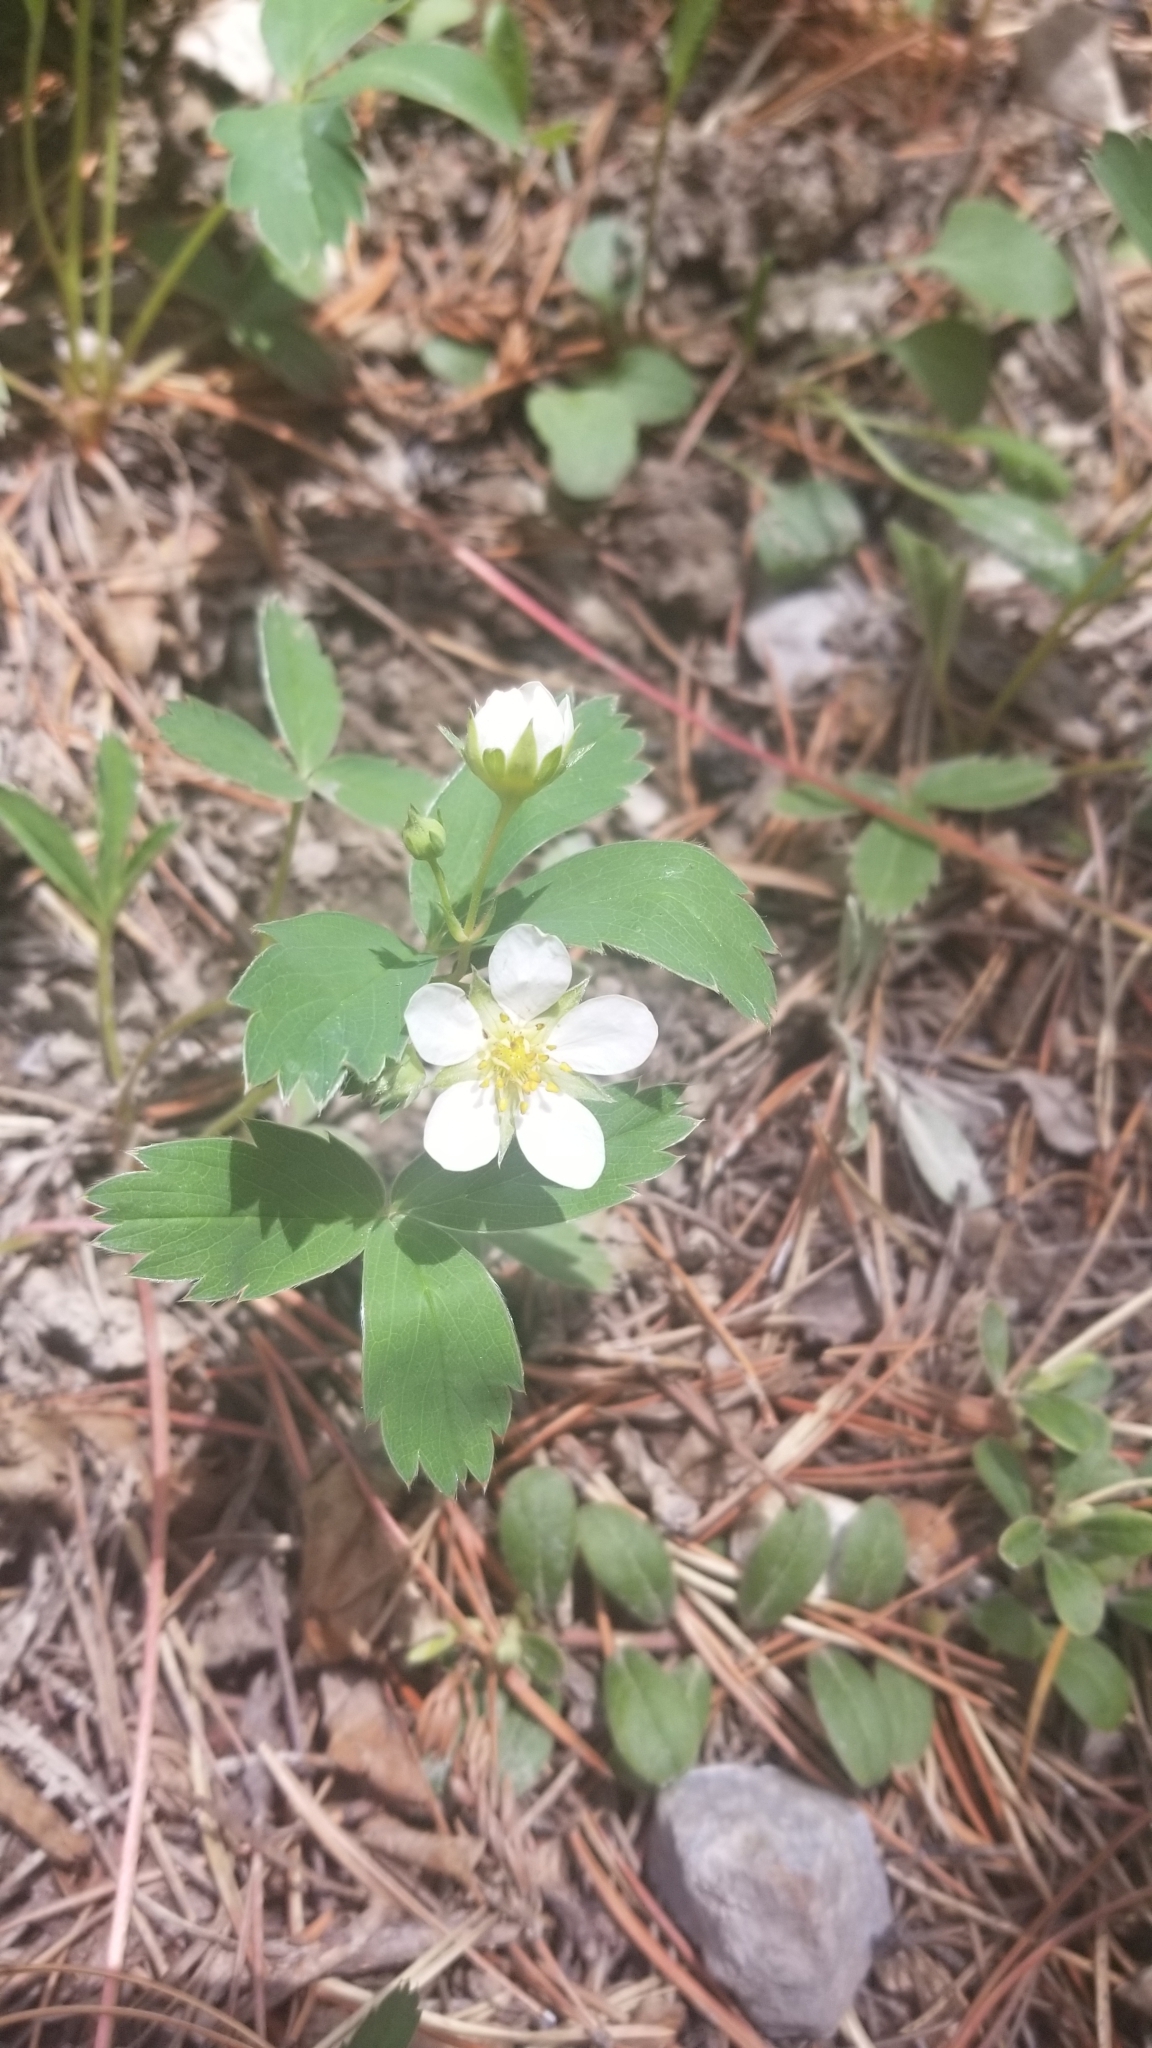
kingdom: Plantae
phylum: Tracheophyta
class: Magnoliopsida
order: Rosales
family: Rosaceae
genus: Fragaria
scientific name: Fragaria virginiana
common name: Thickleaved wild strawberry
